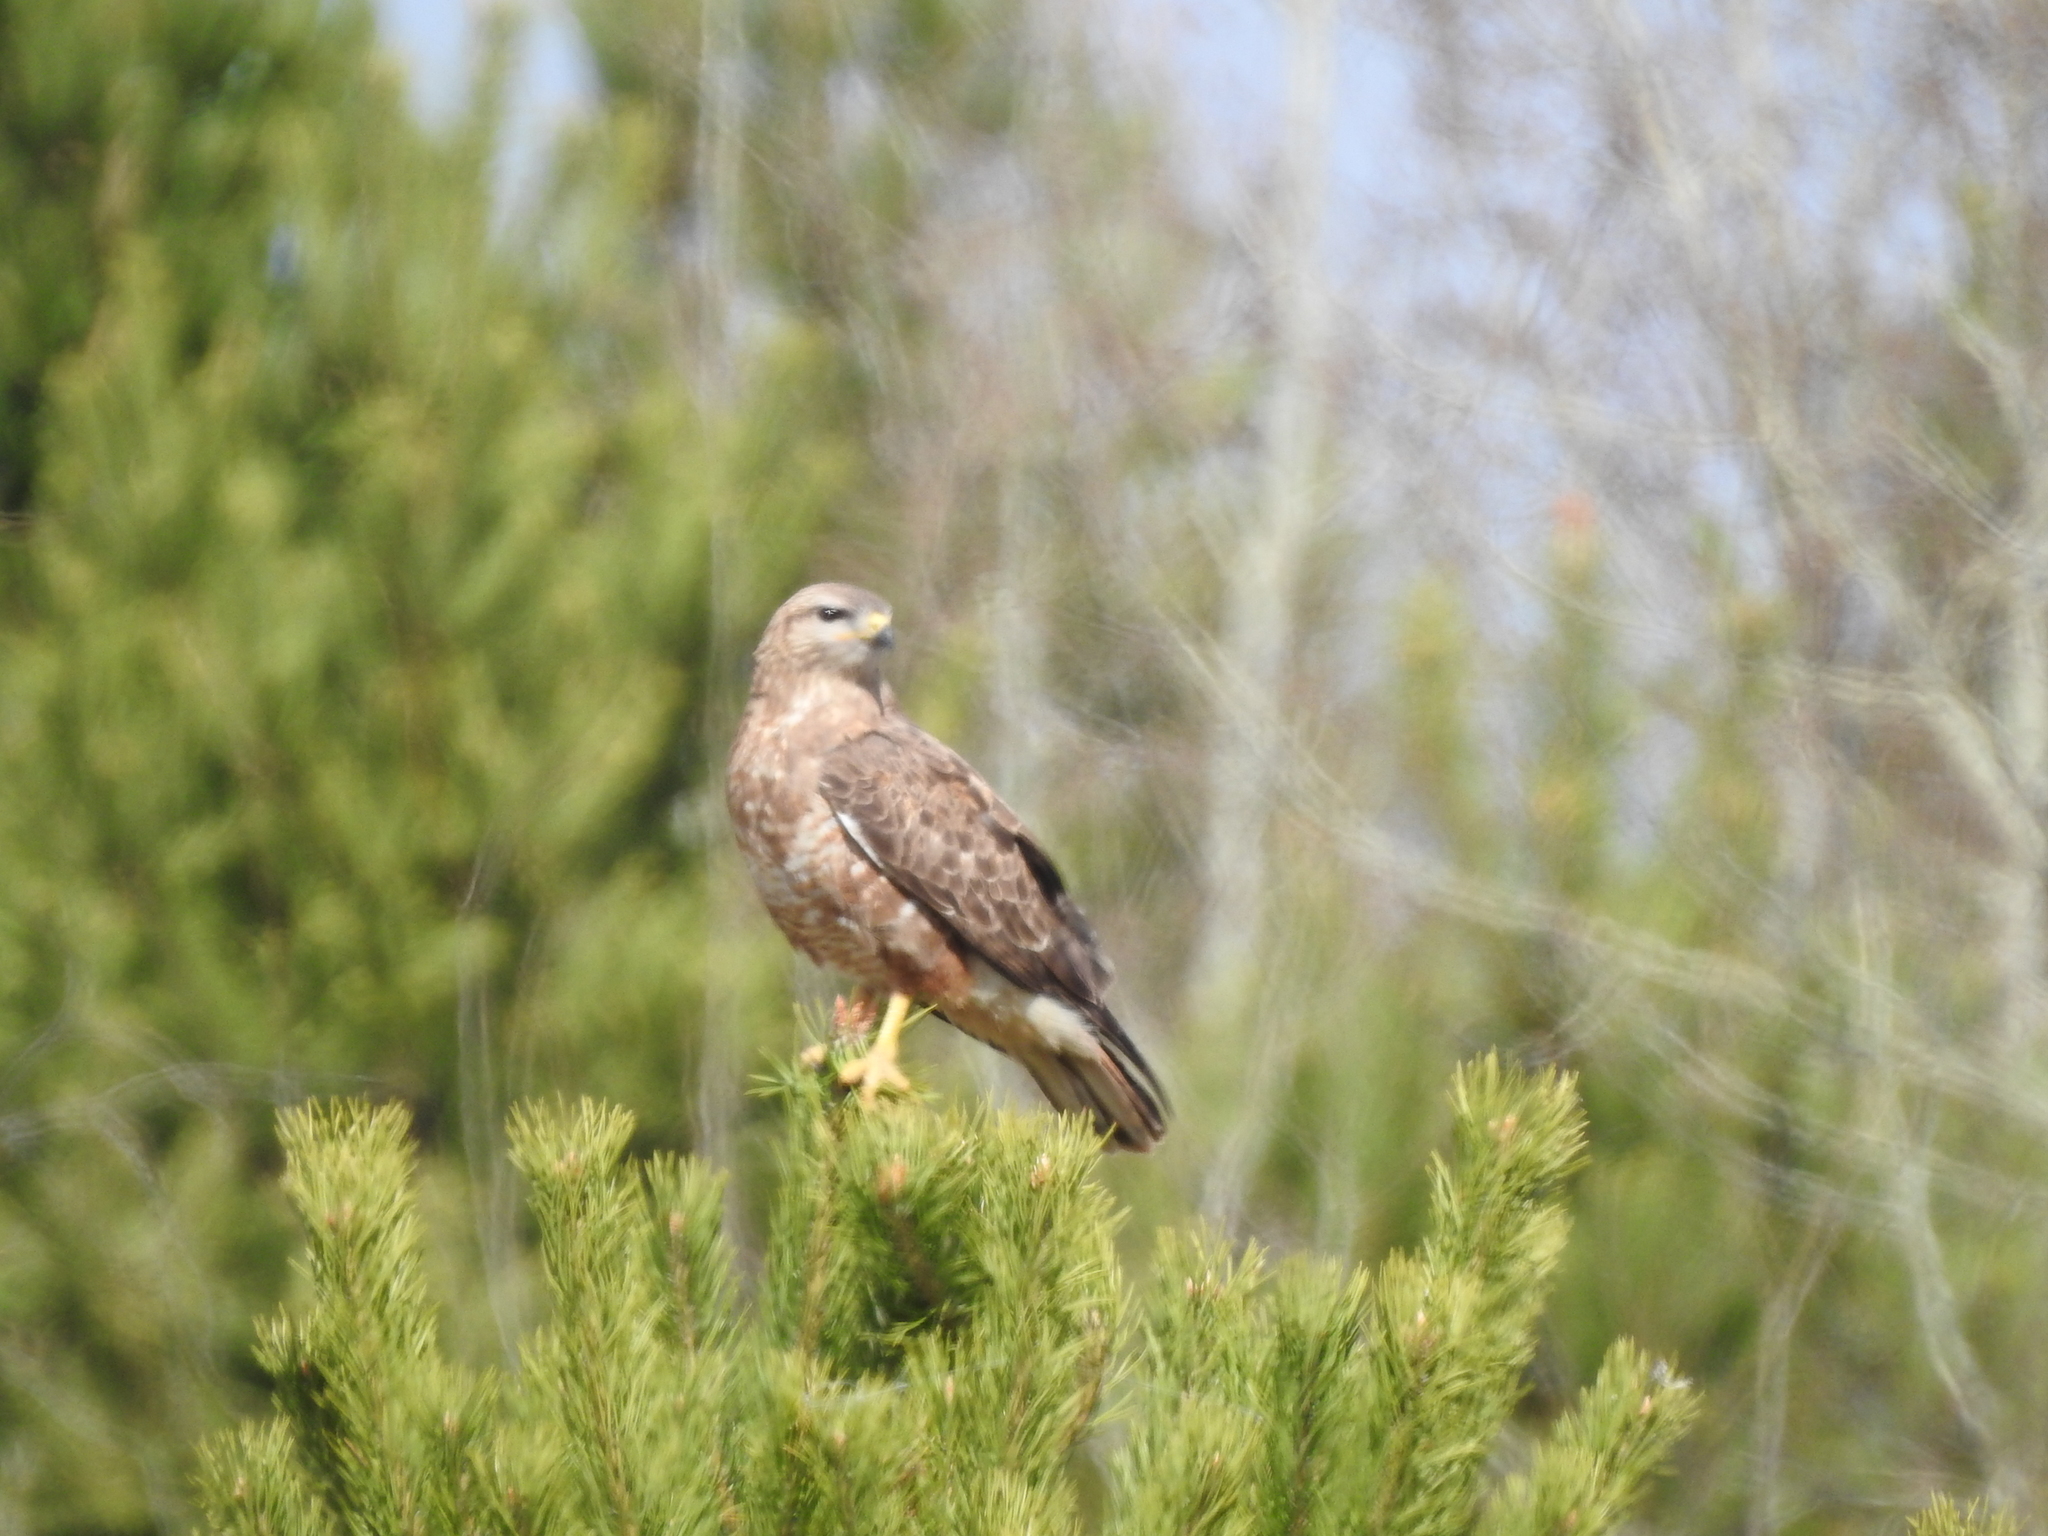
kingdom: Animalia
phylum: Chordata
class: Aves
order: Accipitriformes
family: Accipitridae
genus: Buteo
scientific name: Buteo buteo
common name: Common buzzard
